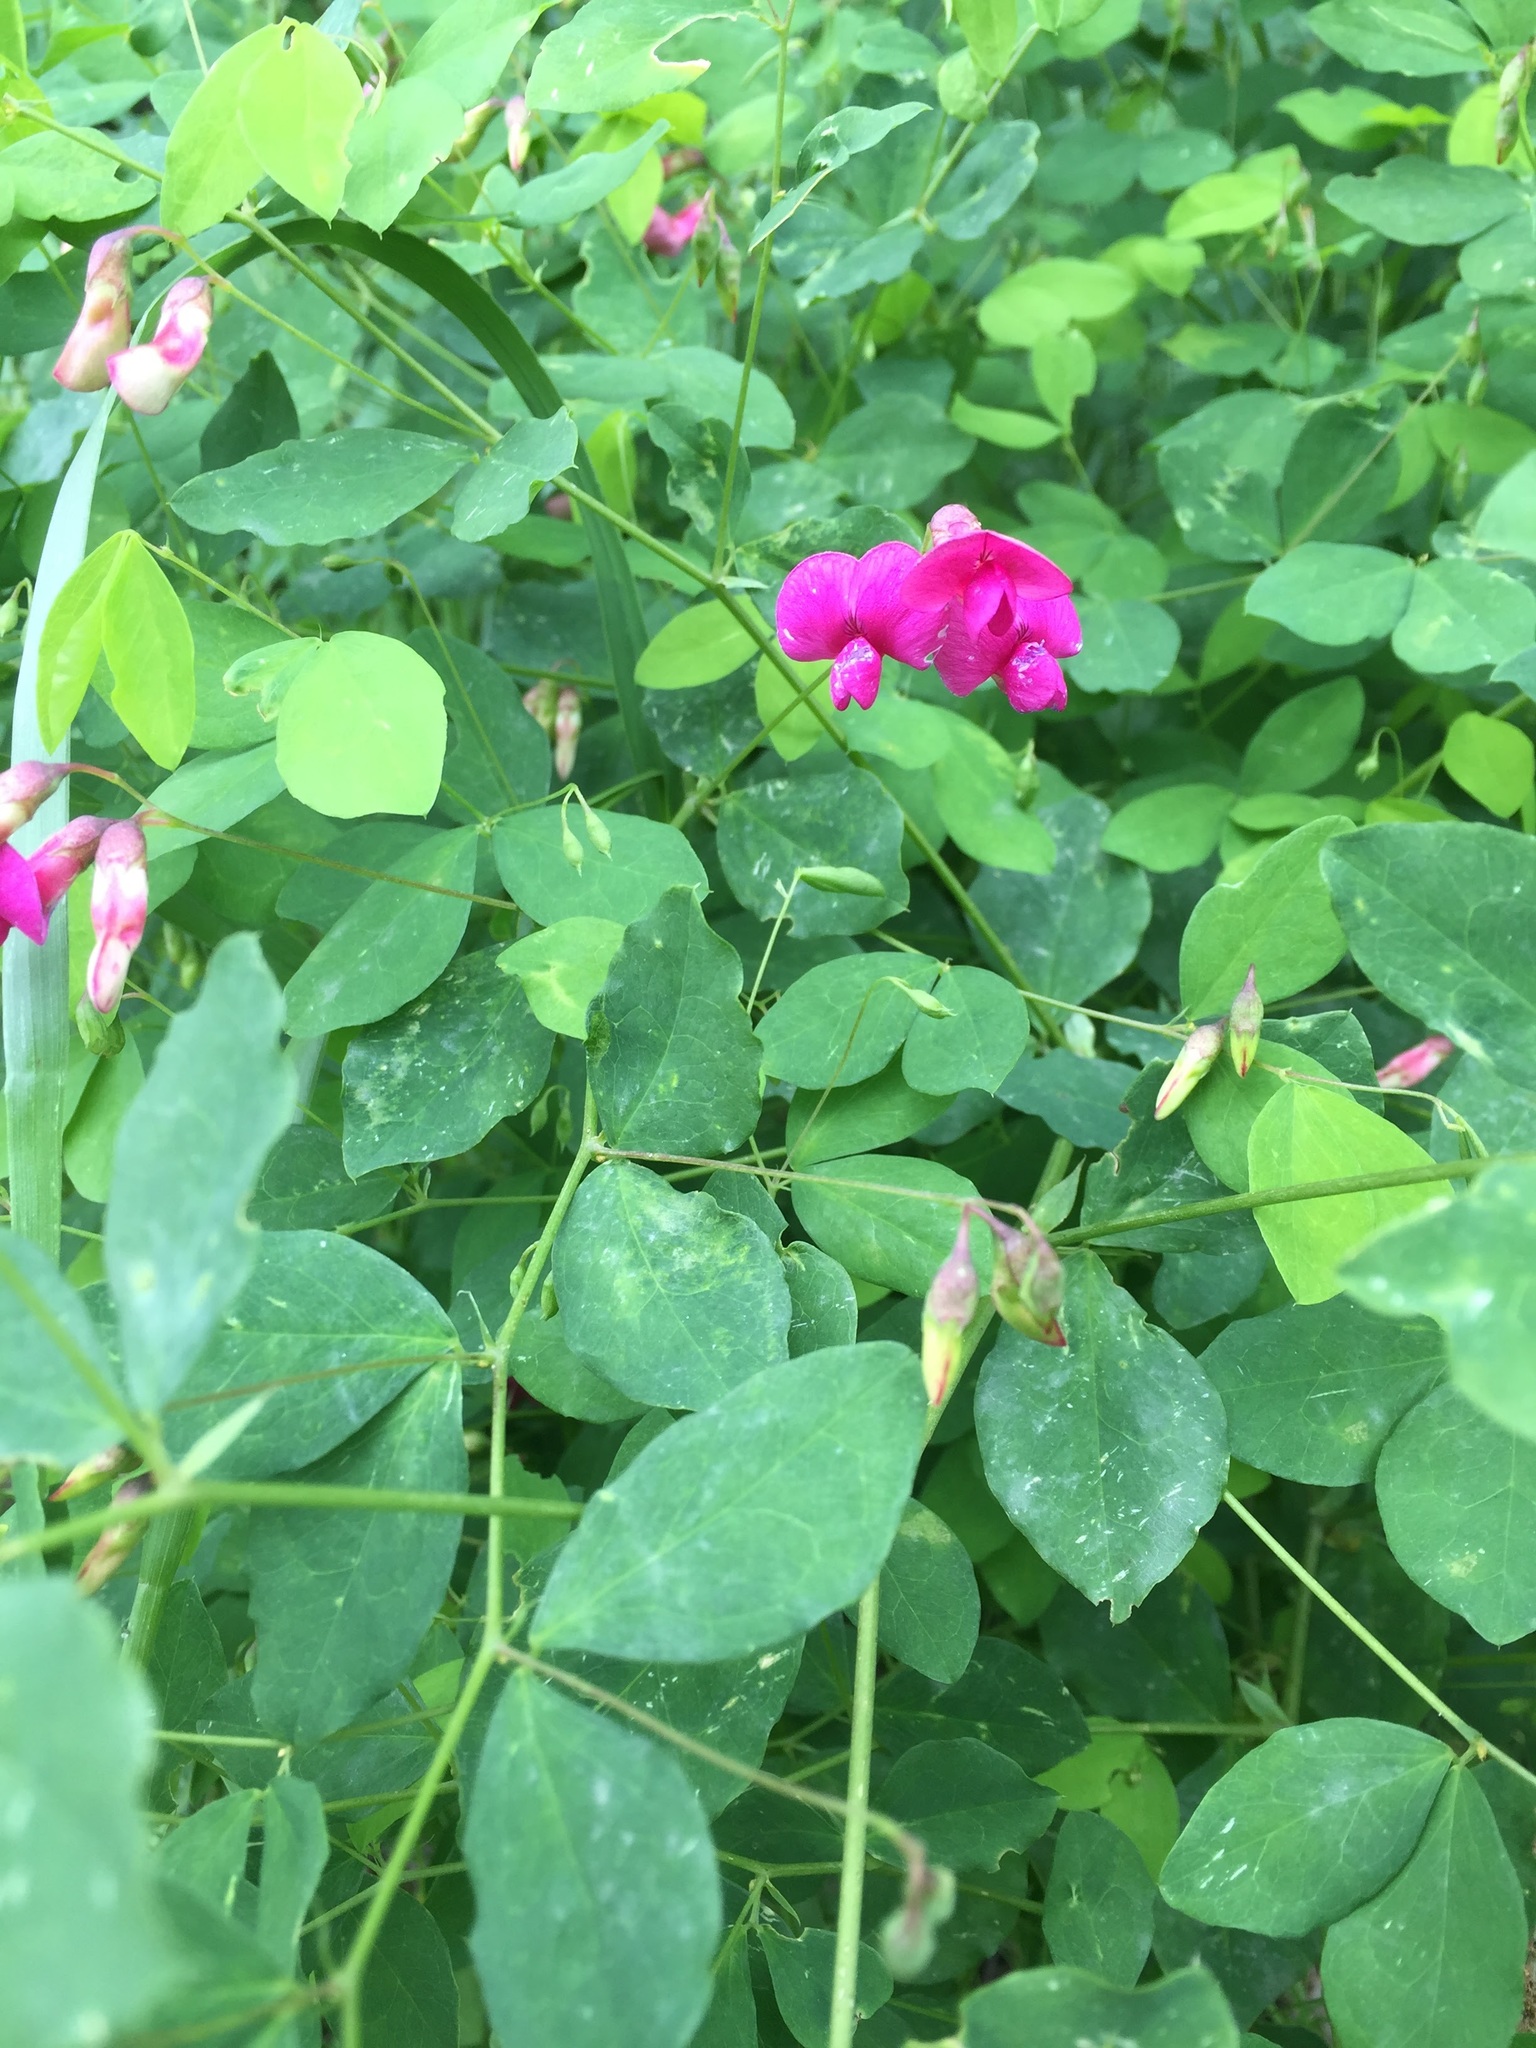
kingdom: Plantae
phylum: Tracheophyta
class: Magnoliopsida
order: Fabales
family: Fabaceae
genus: Lathyrus
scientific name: Lathyrus roseus
